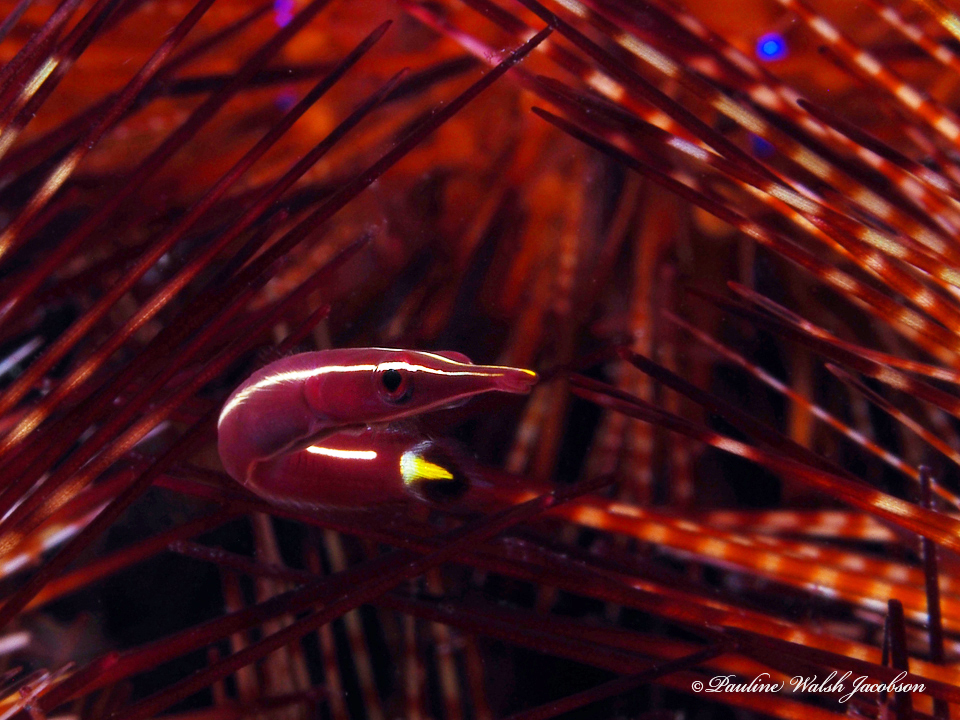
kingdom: Animalia
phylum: Chordata
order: Gobiesociformes
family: Gobiesocidae
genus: Diademichthys
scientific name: Diademichthys lineatus
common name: Urchin clingfish
